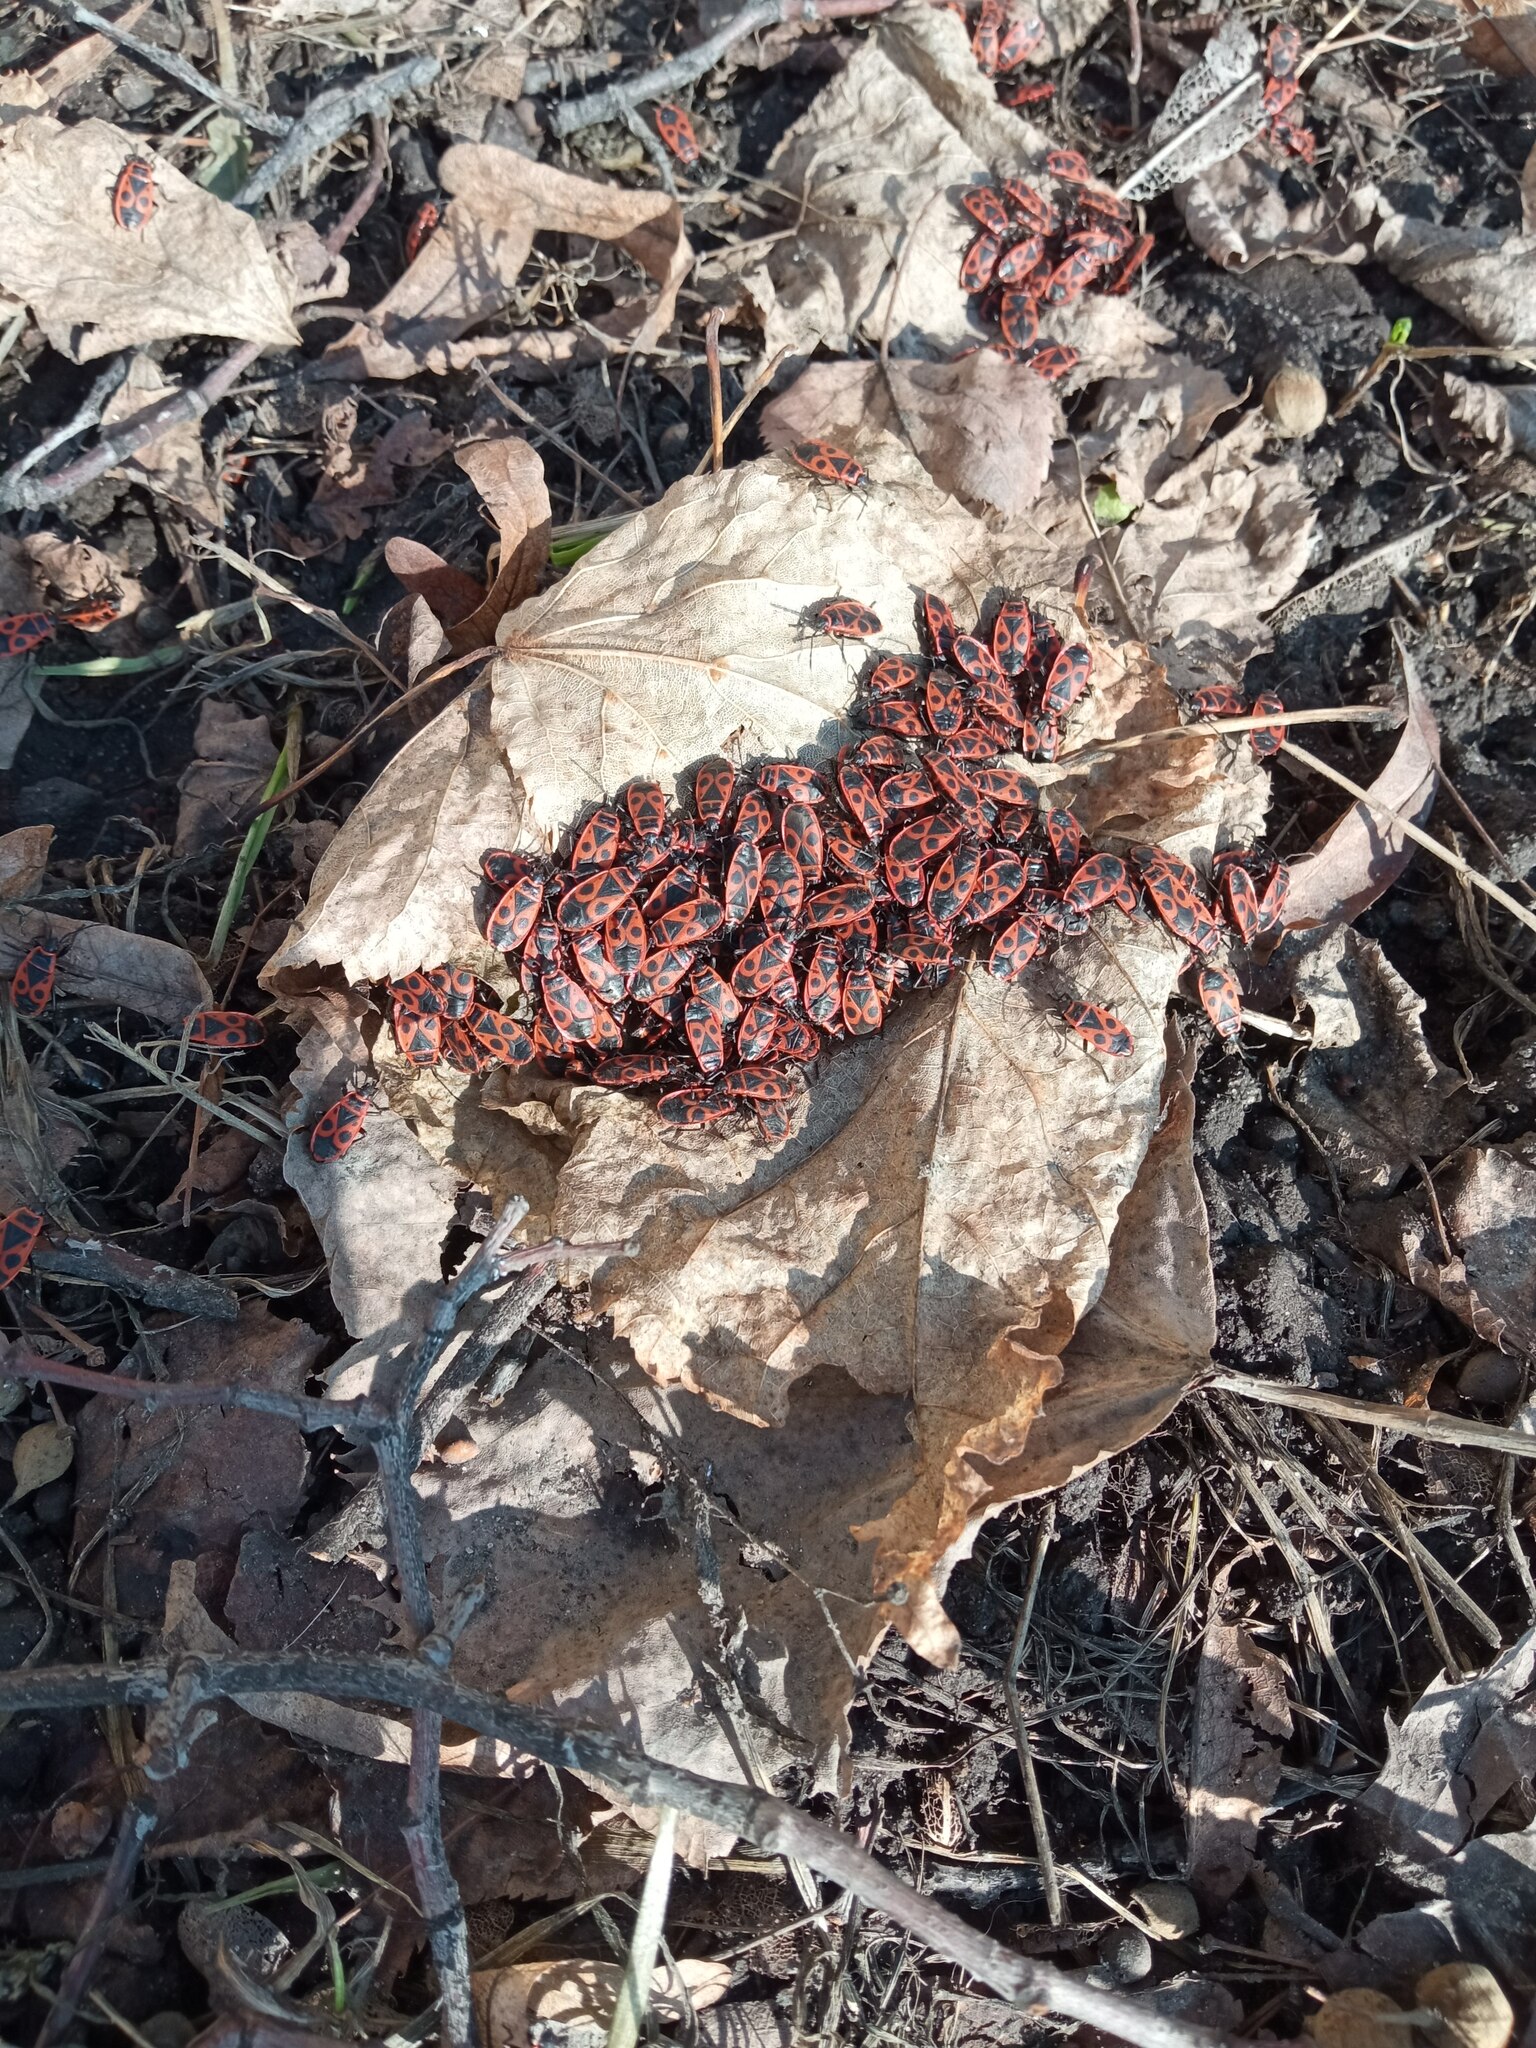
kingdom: Animalia
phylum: Arthropoda
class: Insecta
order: Hemiptera
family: Pyrrhocoridae
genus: Pyrrhocoris
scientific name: Pyrrhocoris apterus
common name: Firebug
